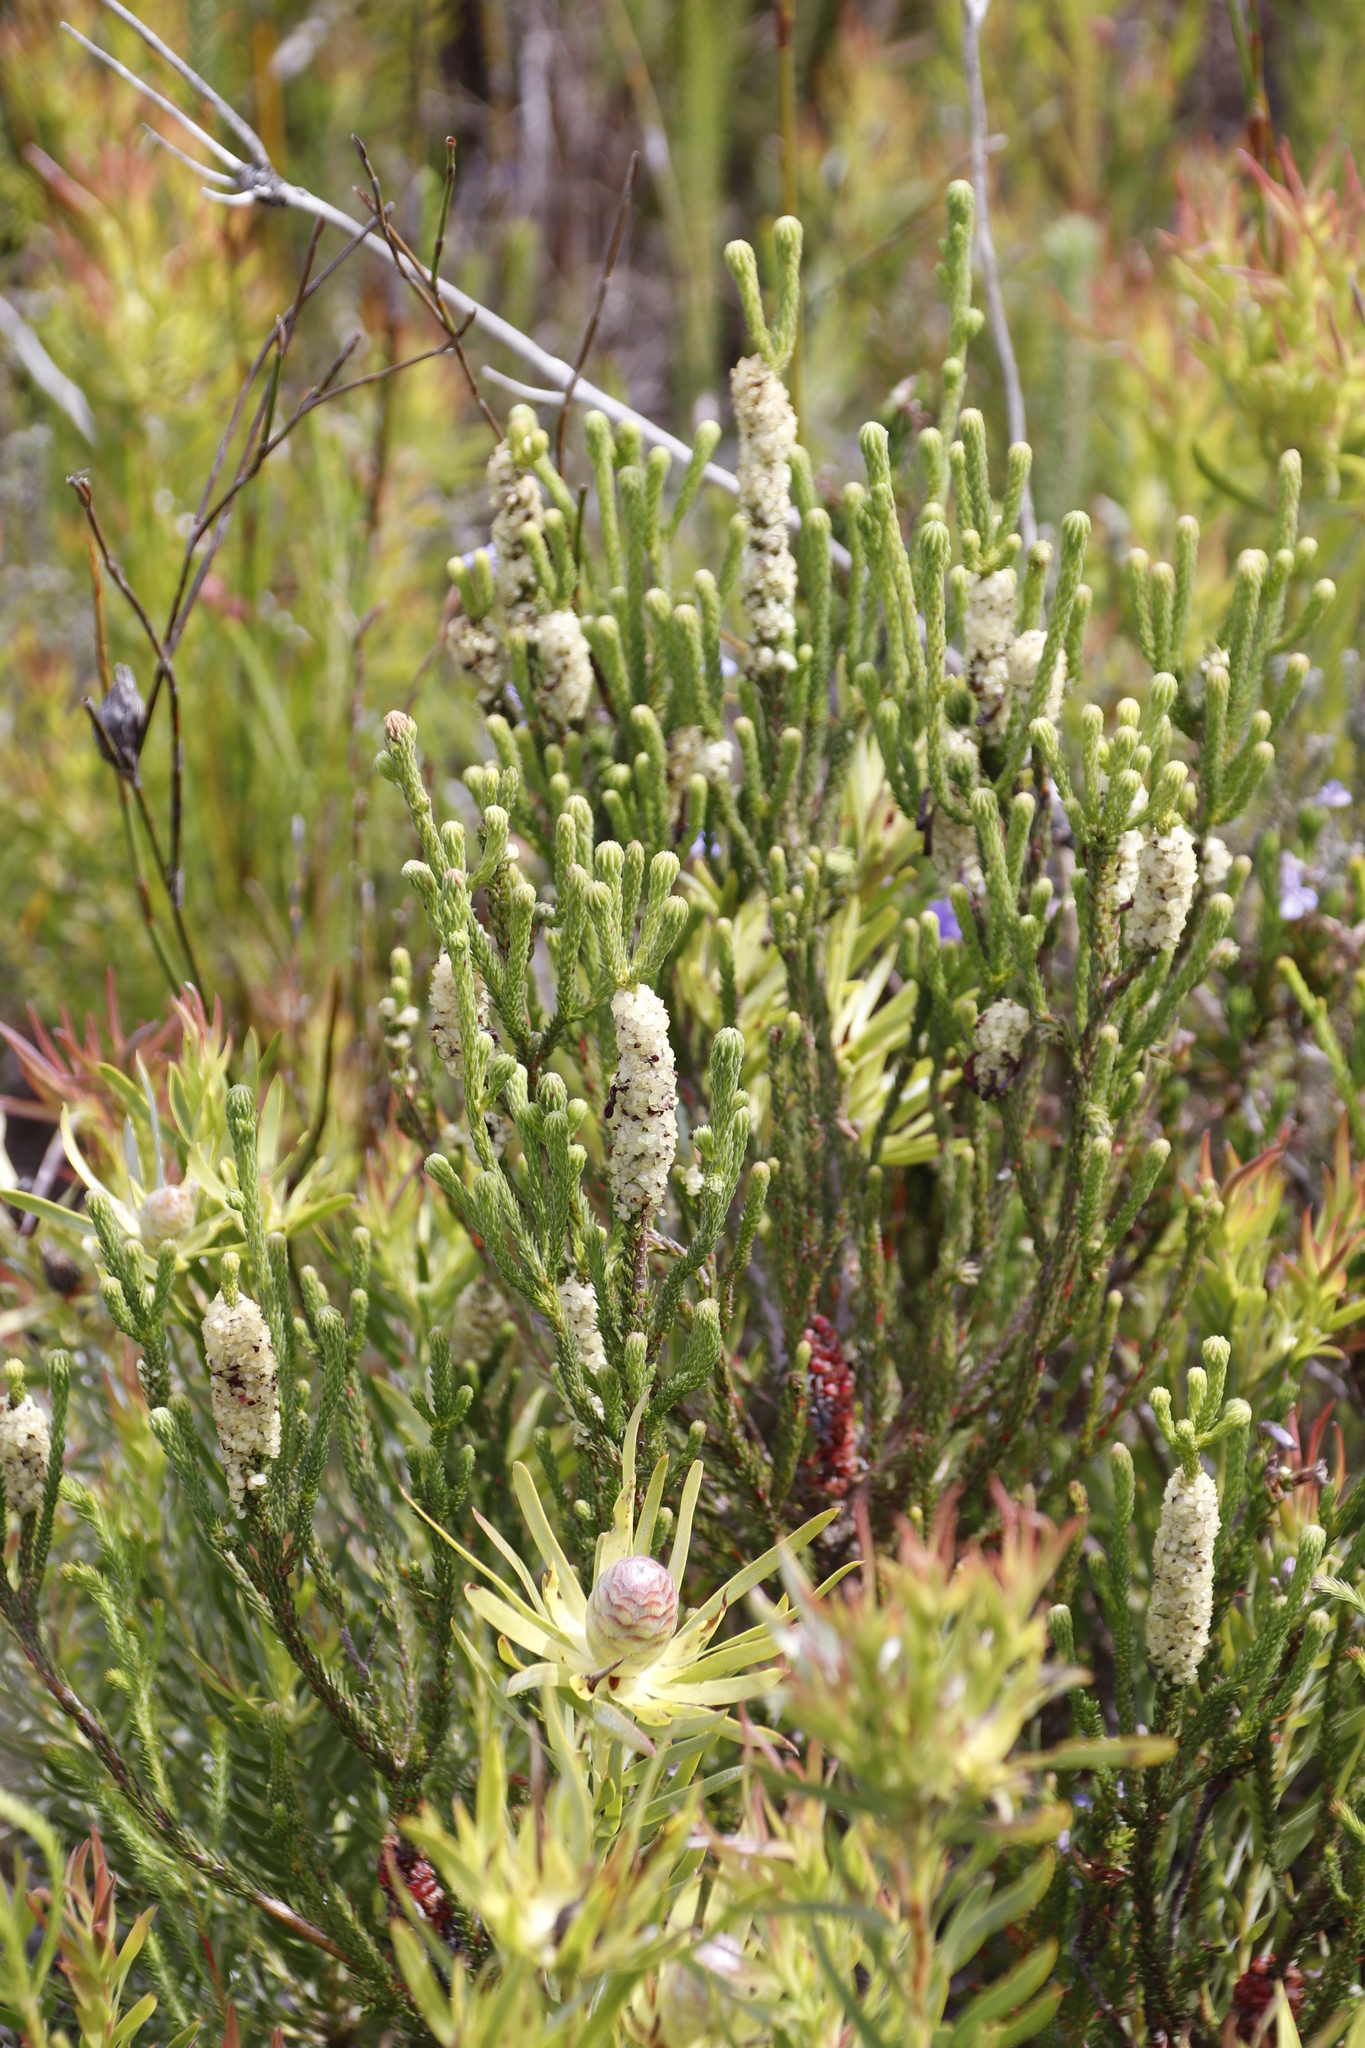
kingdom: Plantae
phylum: Tracheophyta
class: Magnoliopsida
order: Ericales
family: Ericaceae
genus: Erica
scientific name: Erica sessiliflora
